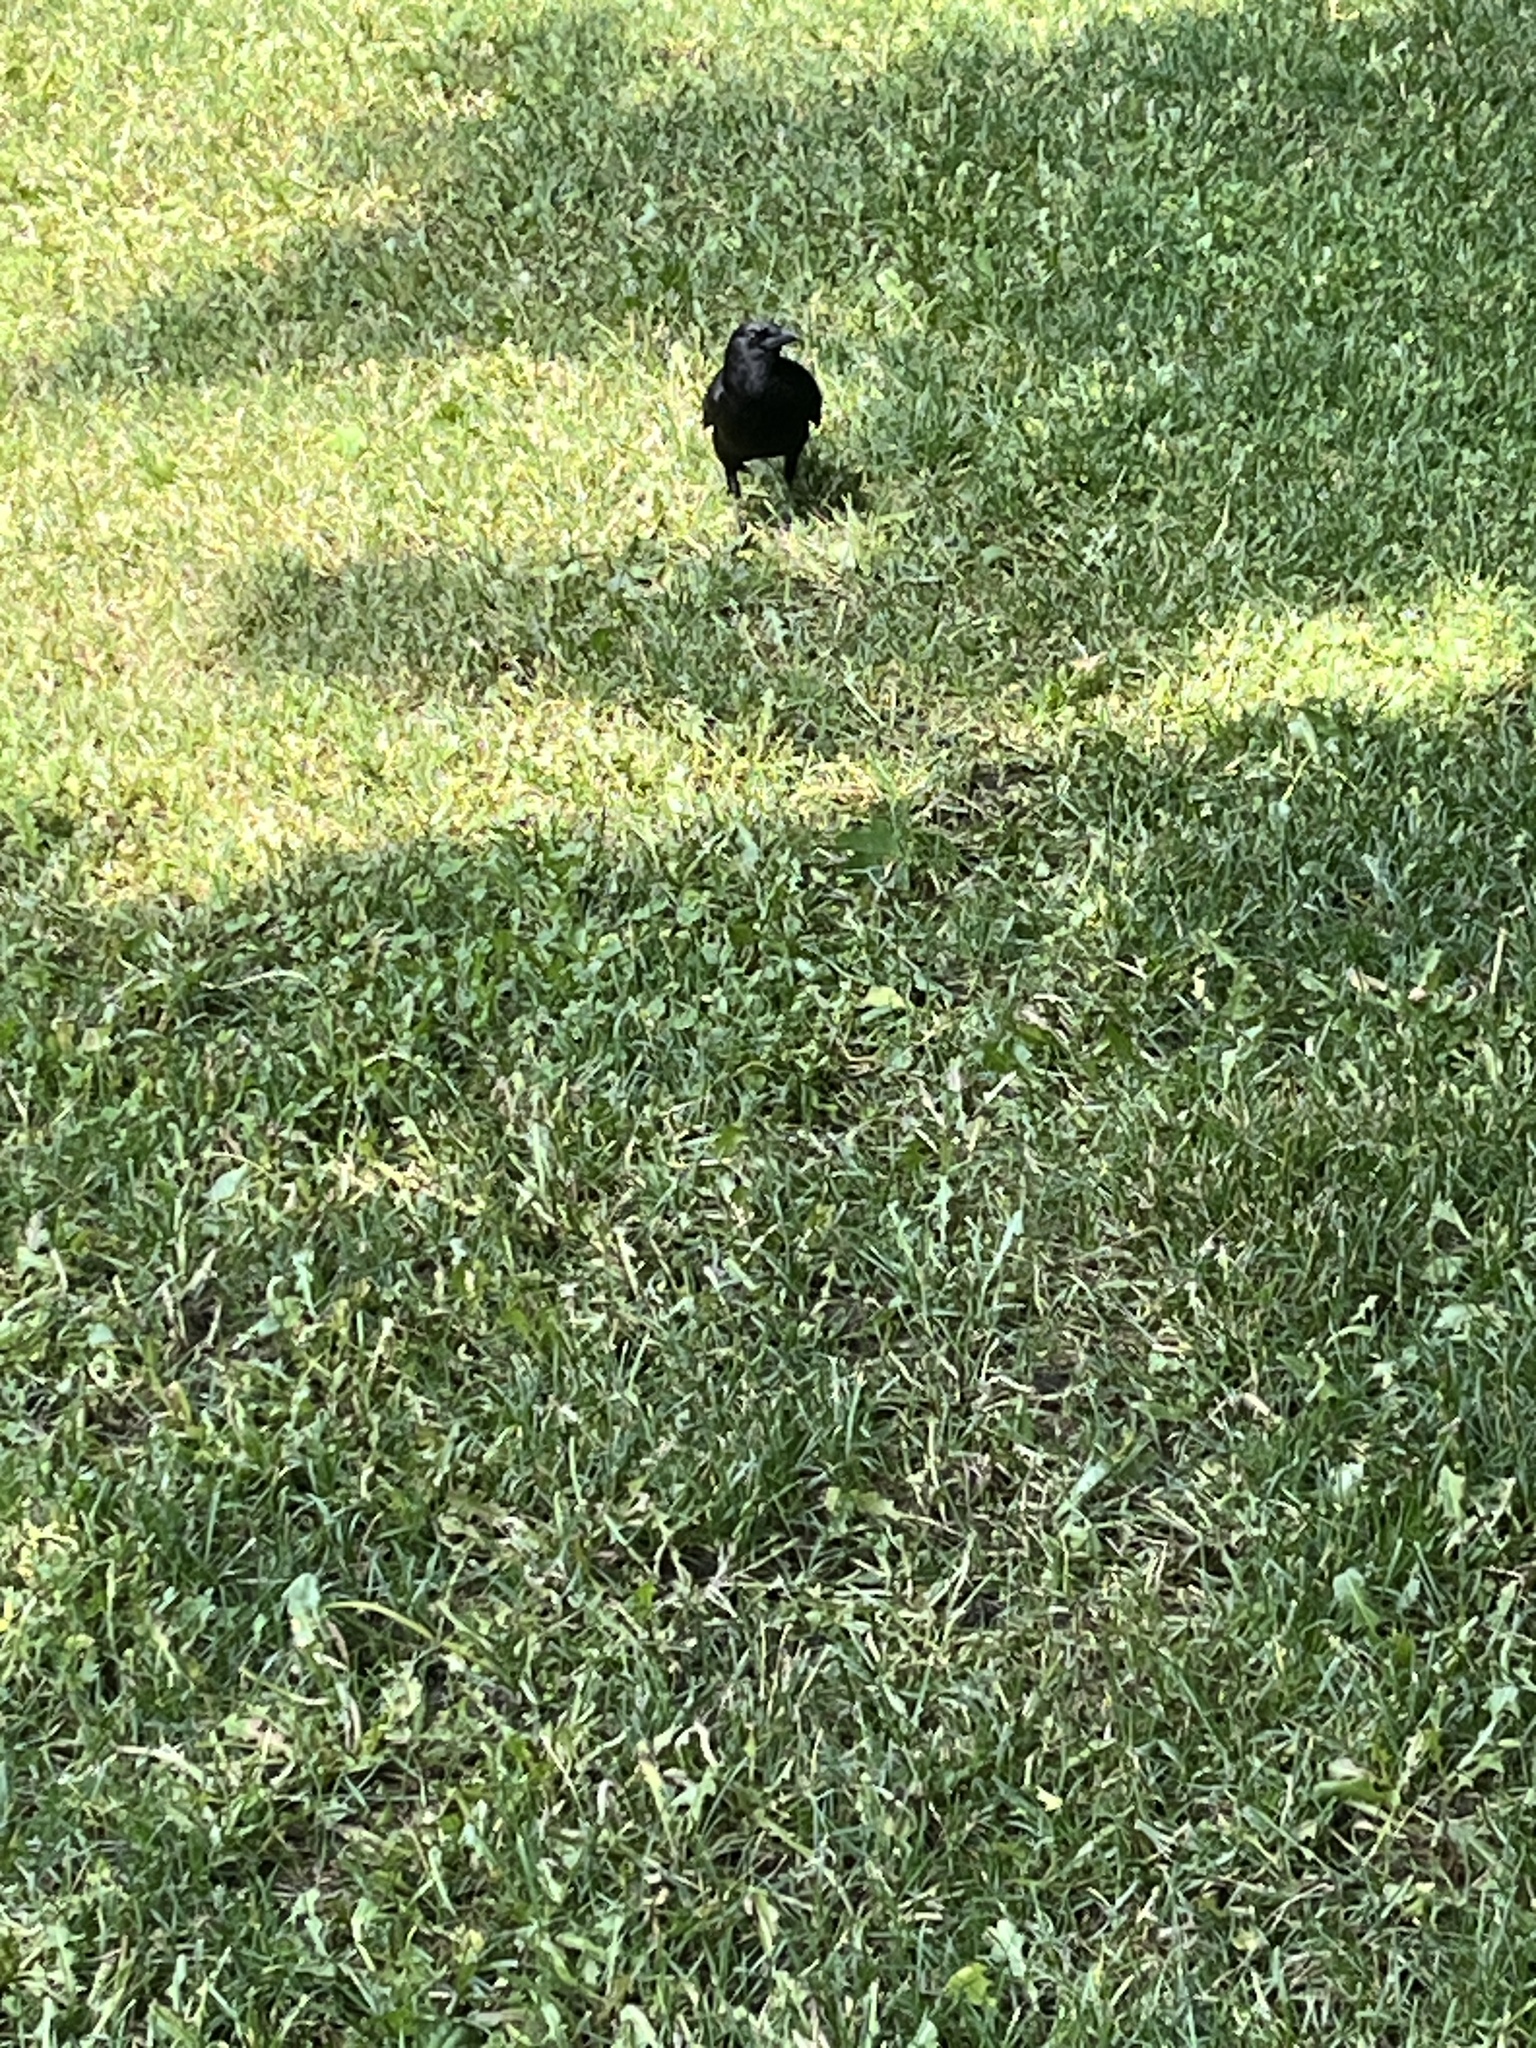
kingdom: Animalia
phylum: Chordata
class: Aves
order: Passeriformes
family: Corvidae
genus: Corvus
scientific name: Corvus brachyrhynchos
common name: American crow
